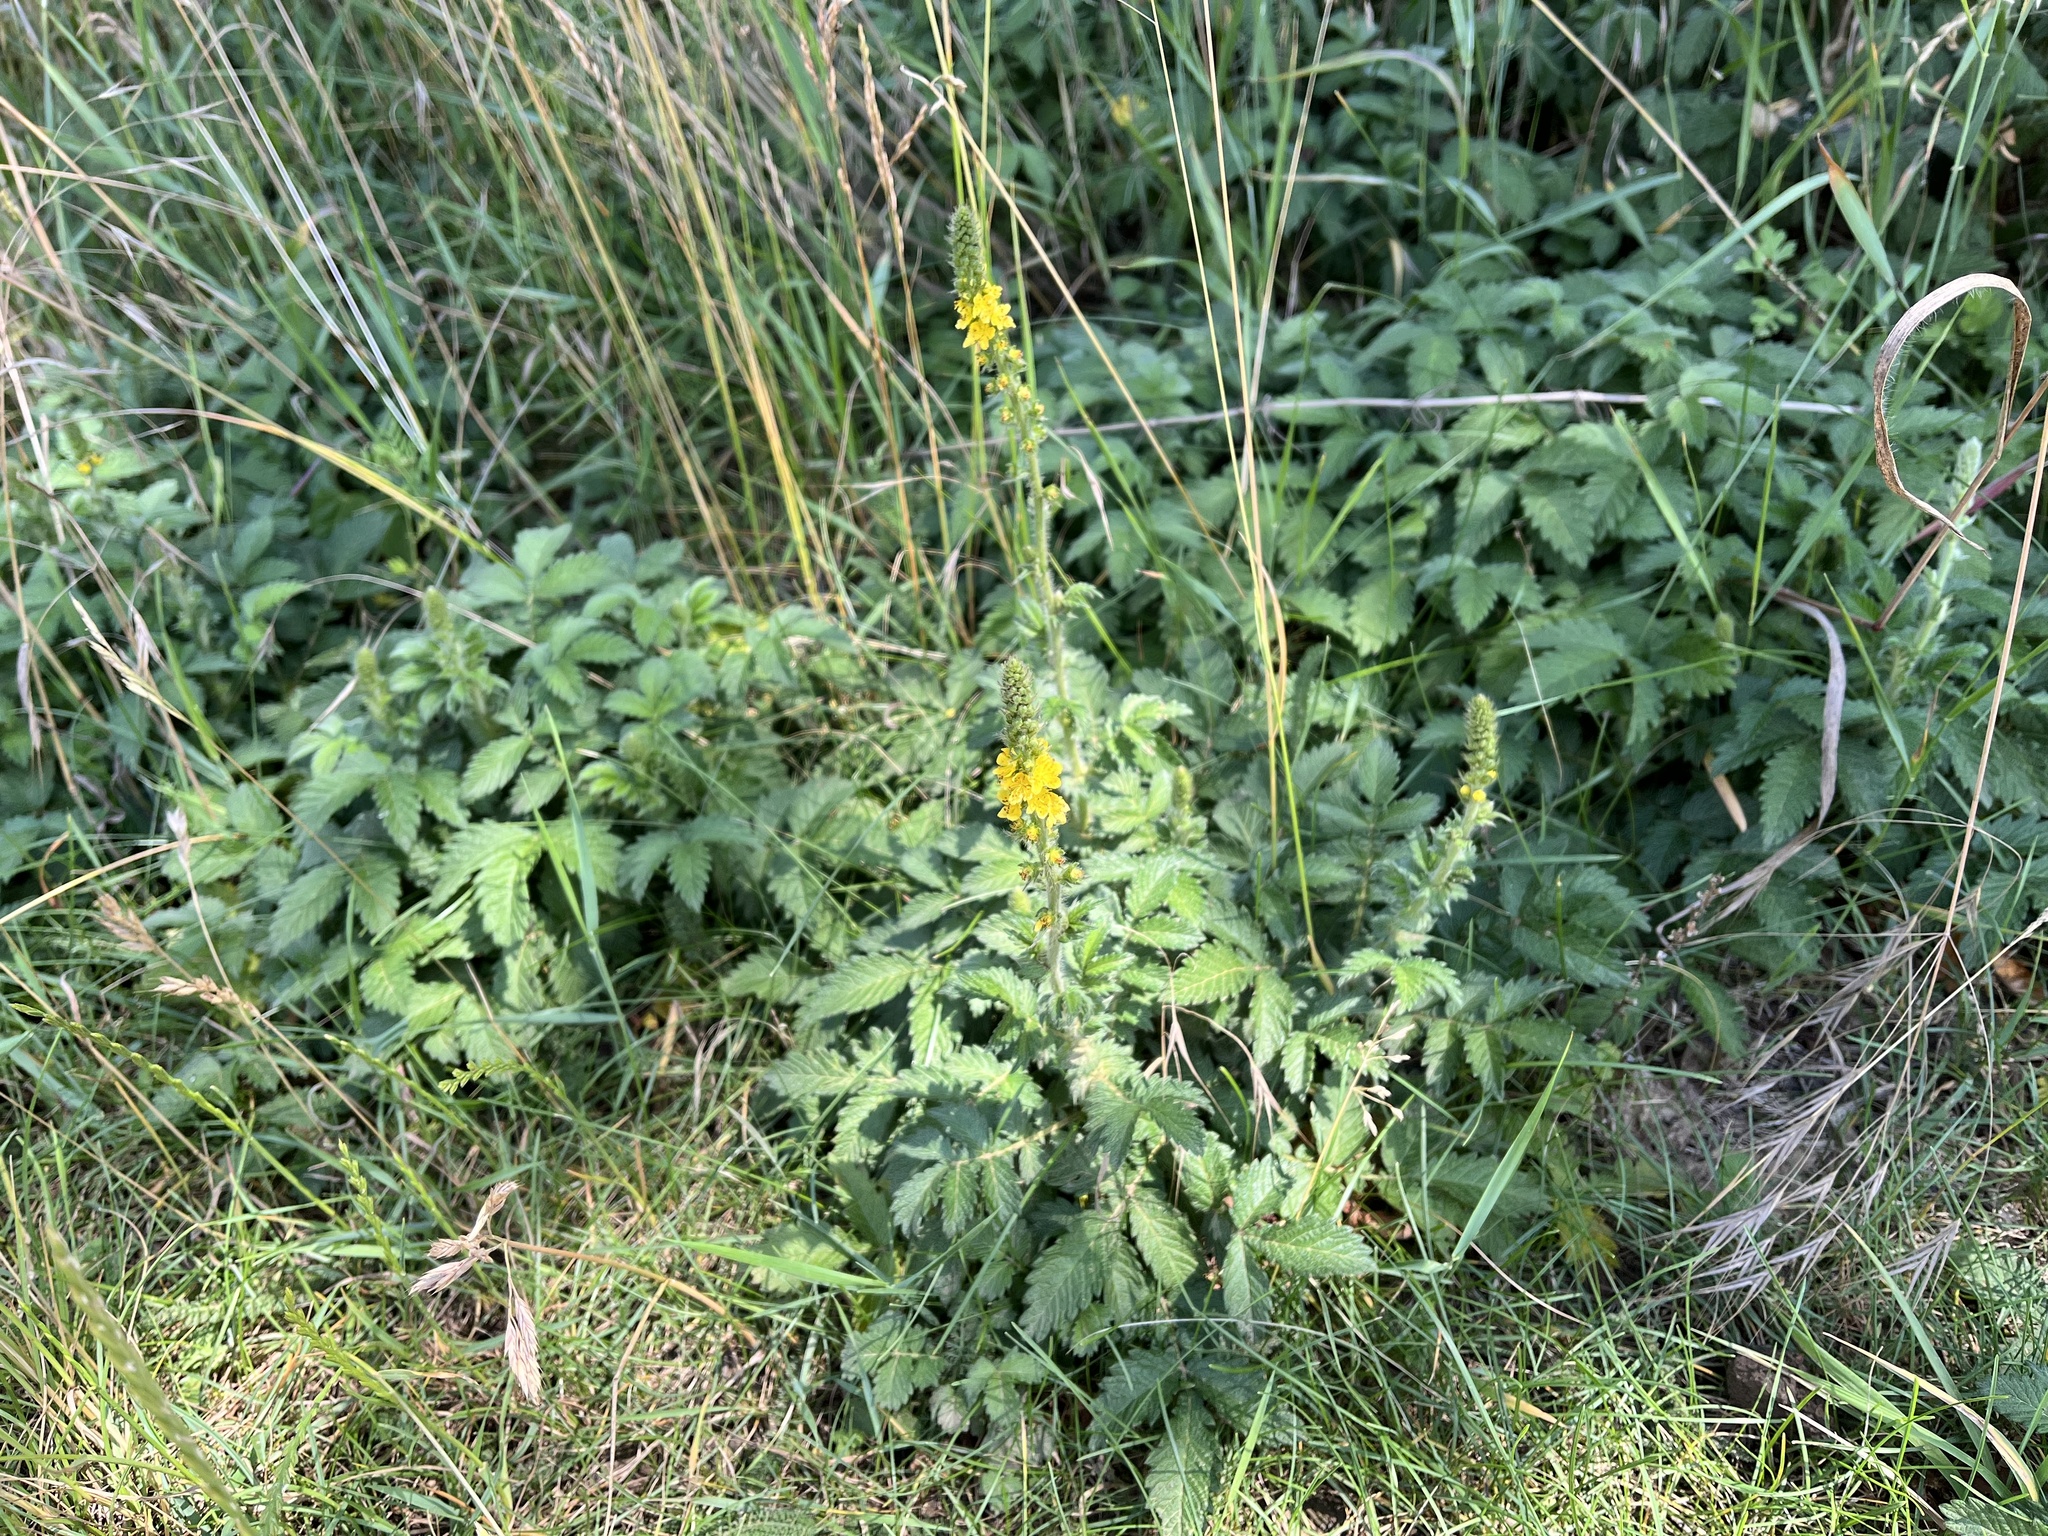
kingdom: Plantae
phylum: Tracheophyta
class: Magnoliopsida
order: Rosales
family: Rosaceae
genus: Agrimonia
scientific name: Agrimonia eupatoria
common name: Agrimony
